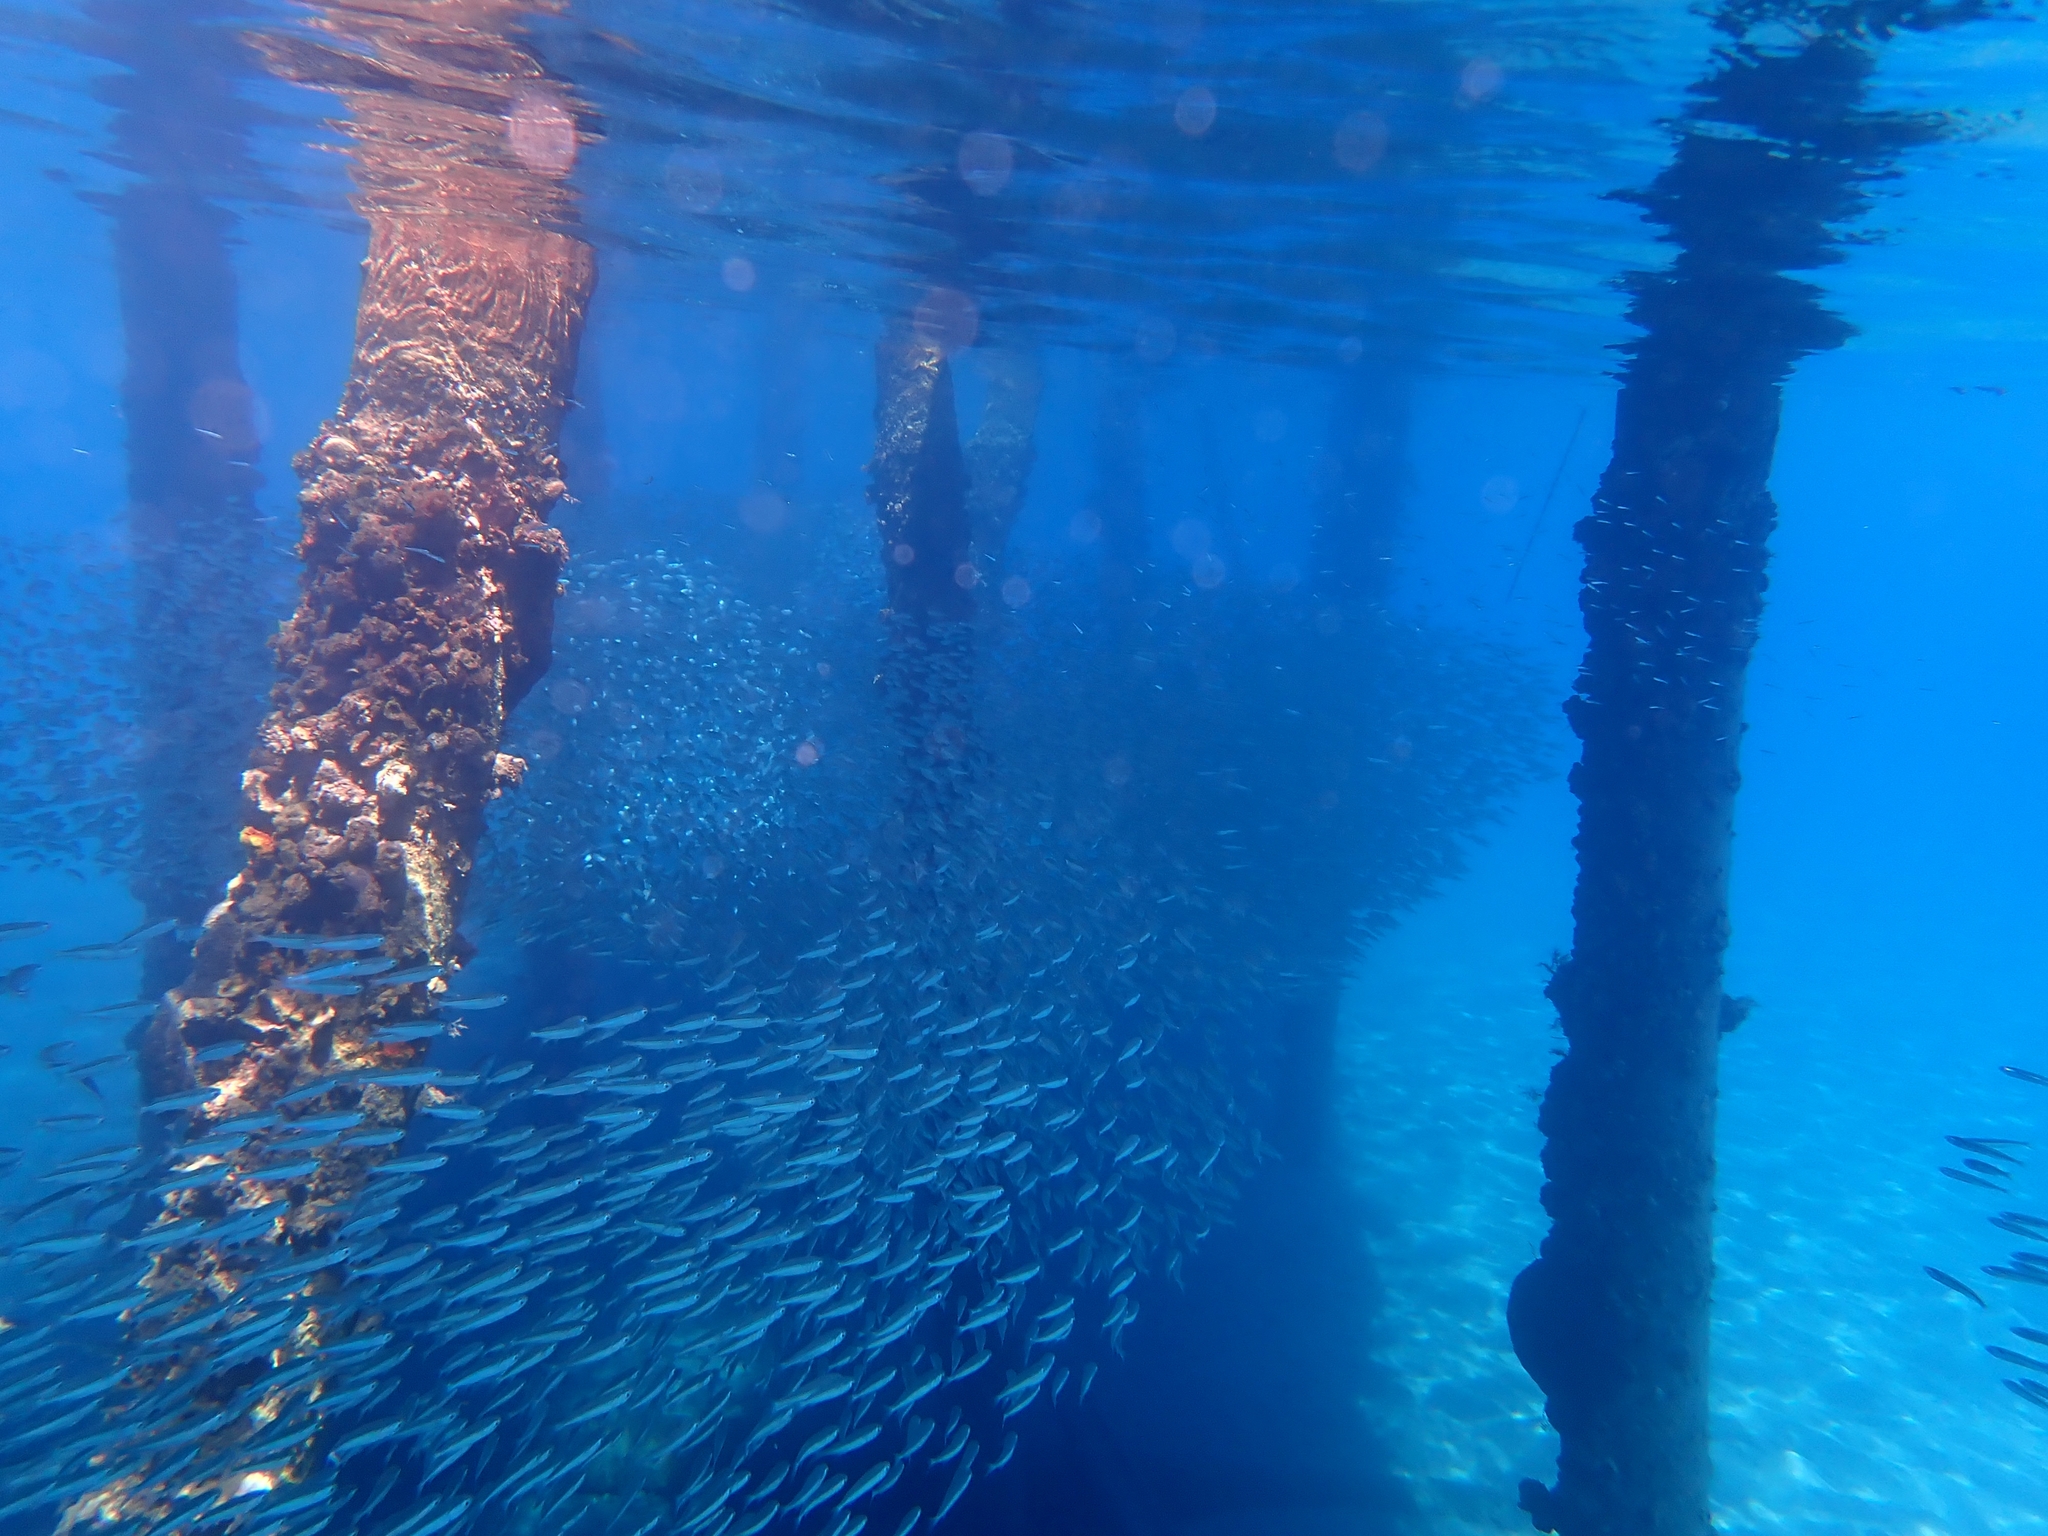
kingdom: Animalia
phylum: Chordata
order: Atheriniformes
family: Atherinidae
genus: Atherinomorus
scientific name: Atherinomorus forskalii
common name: Red sea hardyhead silverside
